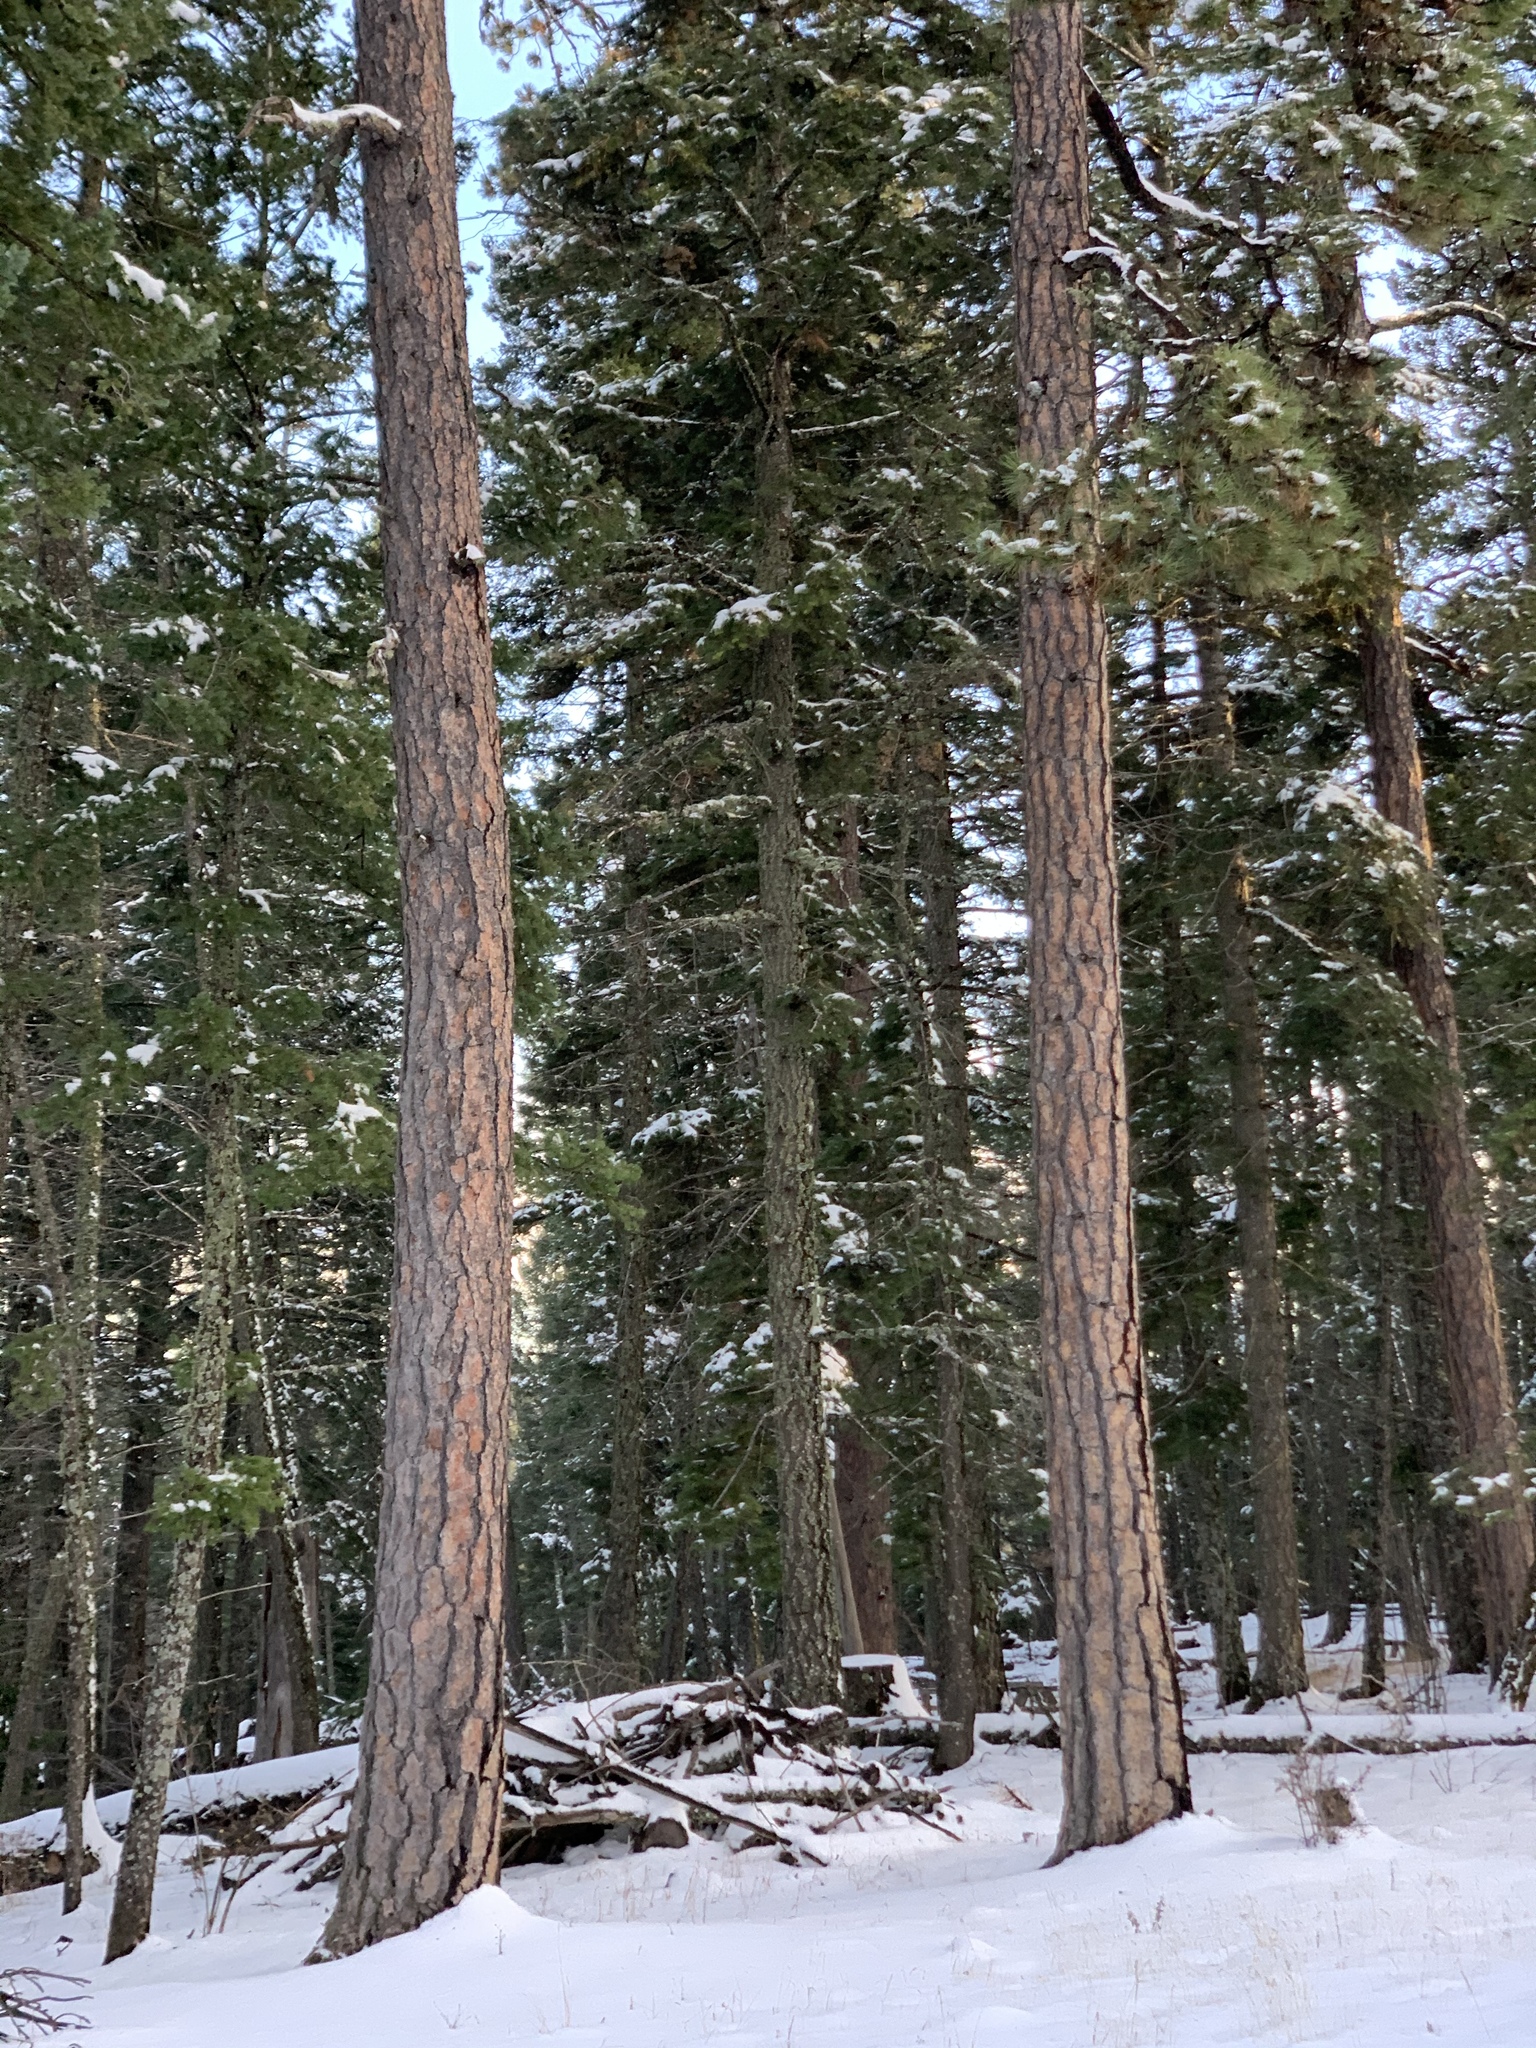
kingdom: Plantae
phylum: Tracheophyta
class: Pinopsida
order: Pinales
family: Pinaceae
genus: Pinus
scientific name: Pinus ponderosa
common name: Western yellow-pine
